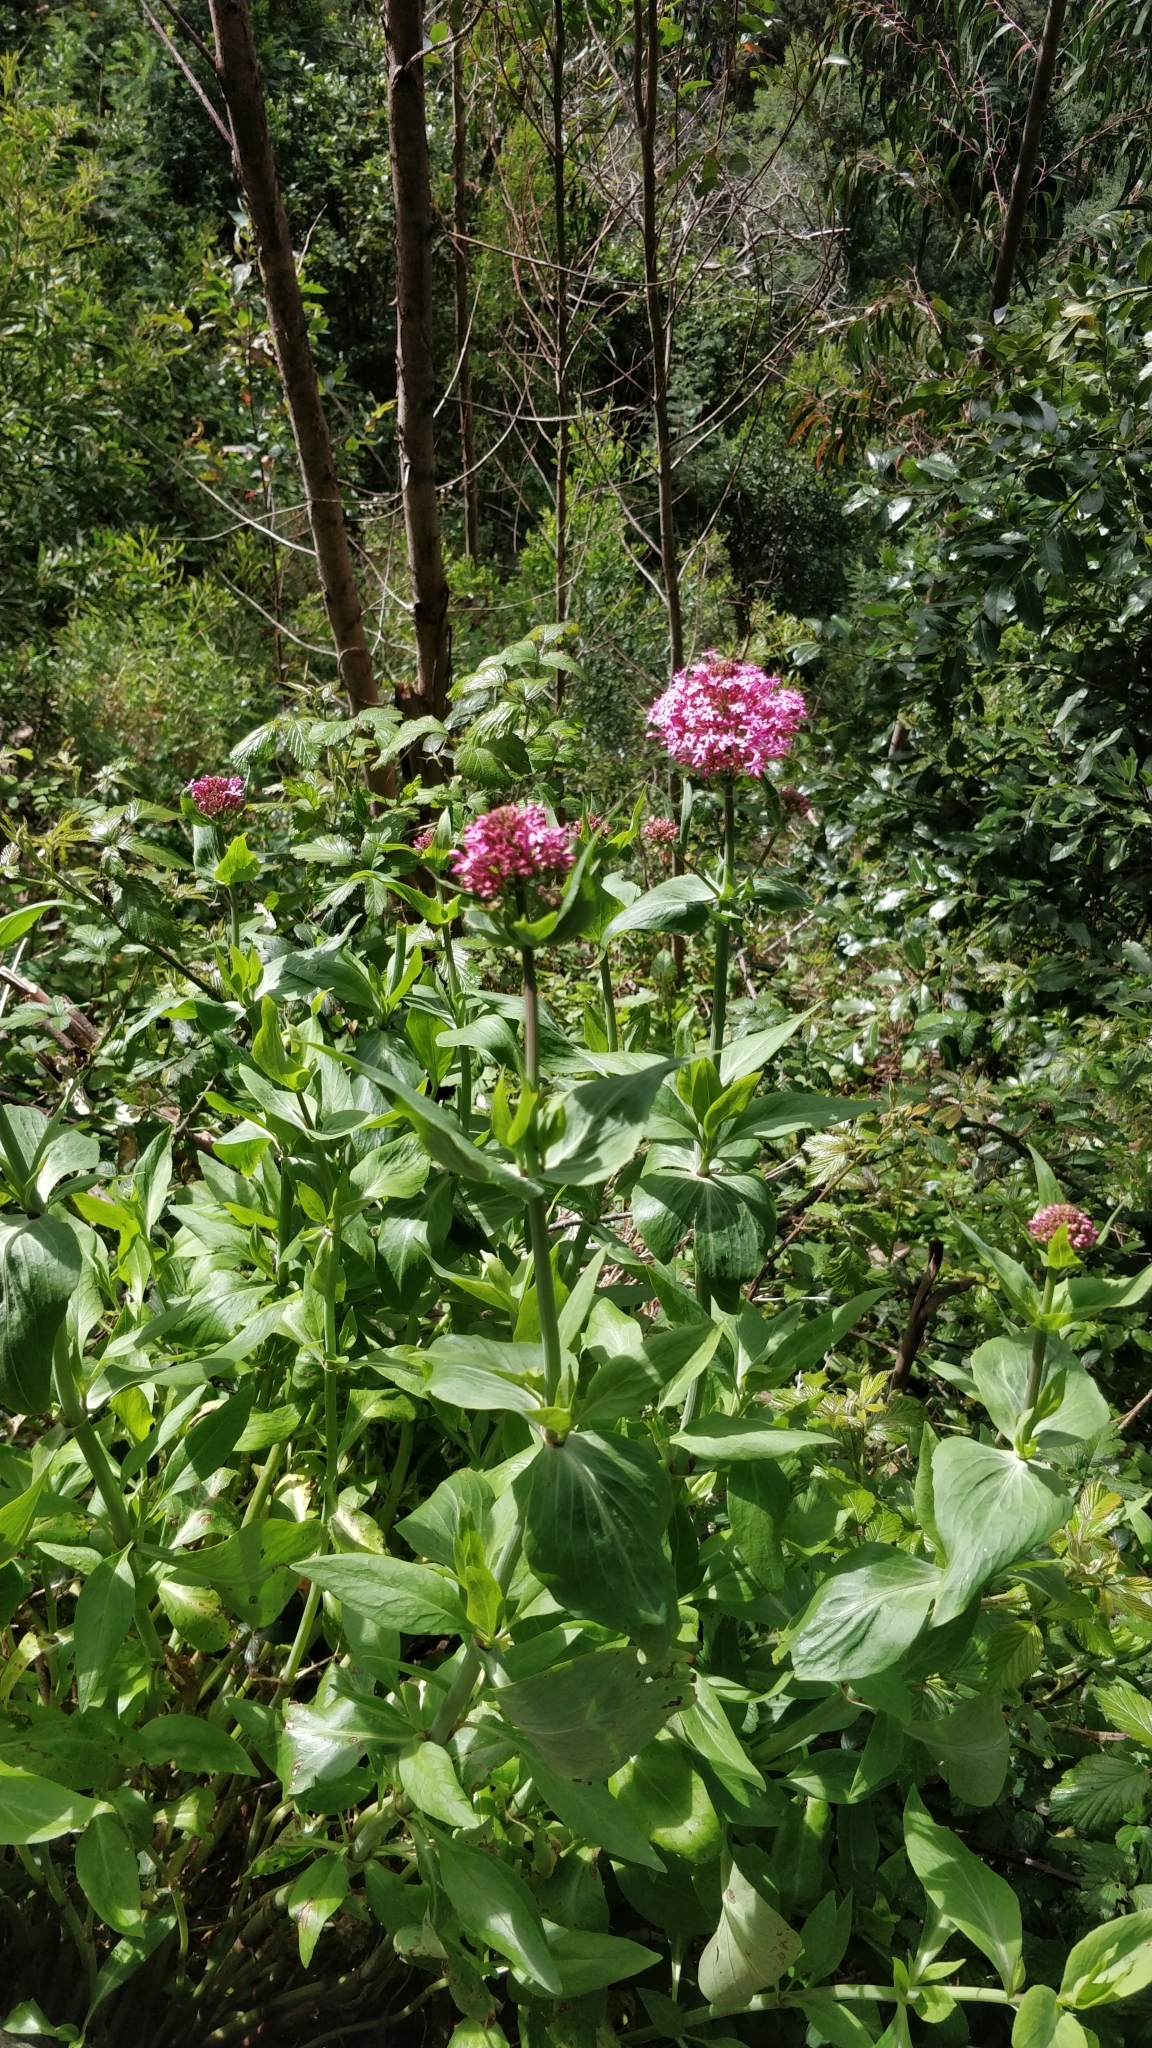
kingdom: Plantae
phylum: Tracheophyta
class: Magnoliopsida
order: Dipsacales
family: Caprifoliaceae
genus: Centranthus
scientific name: Centranthus ruber
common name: Red valerian
